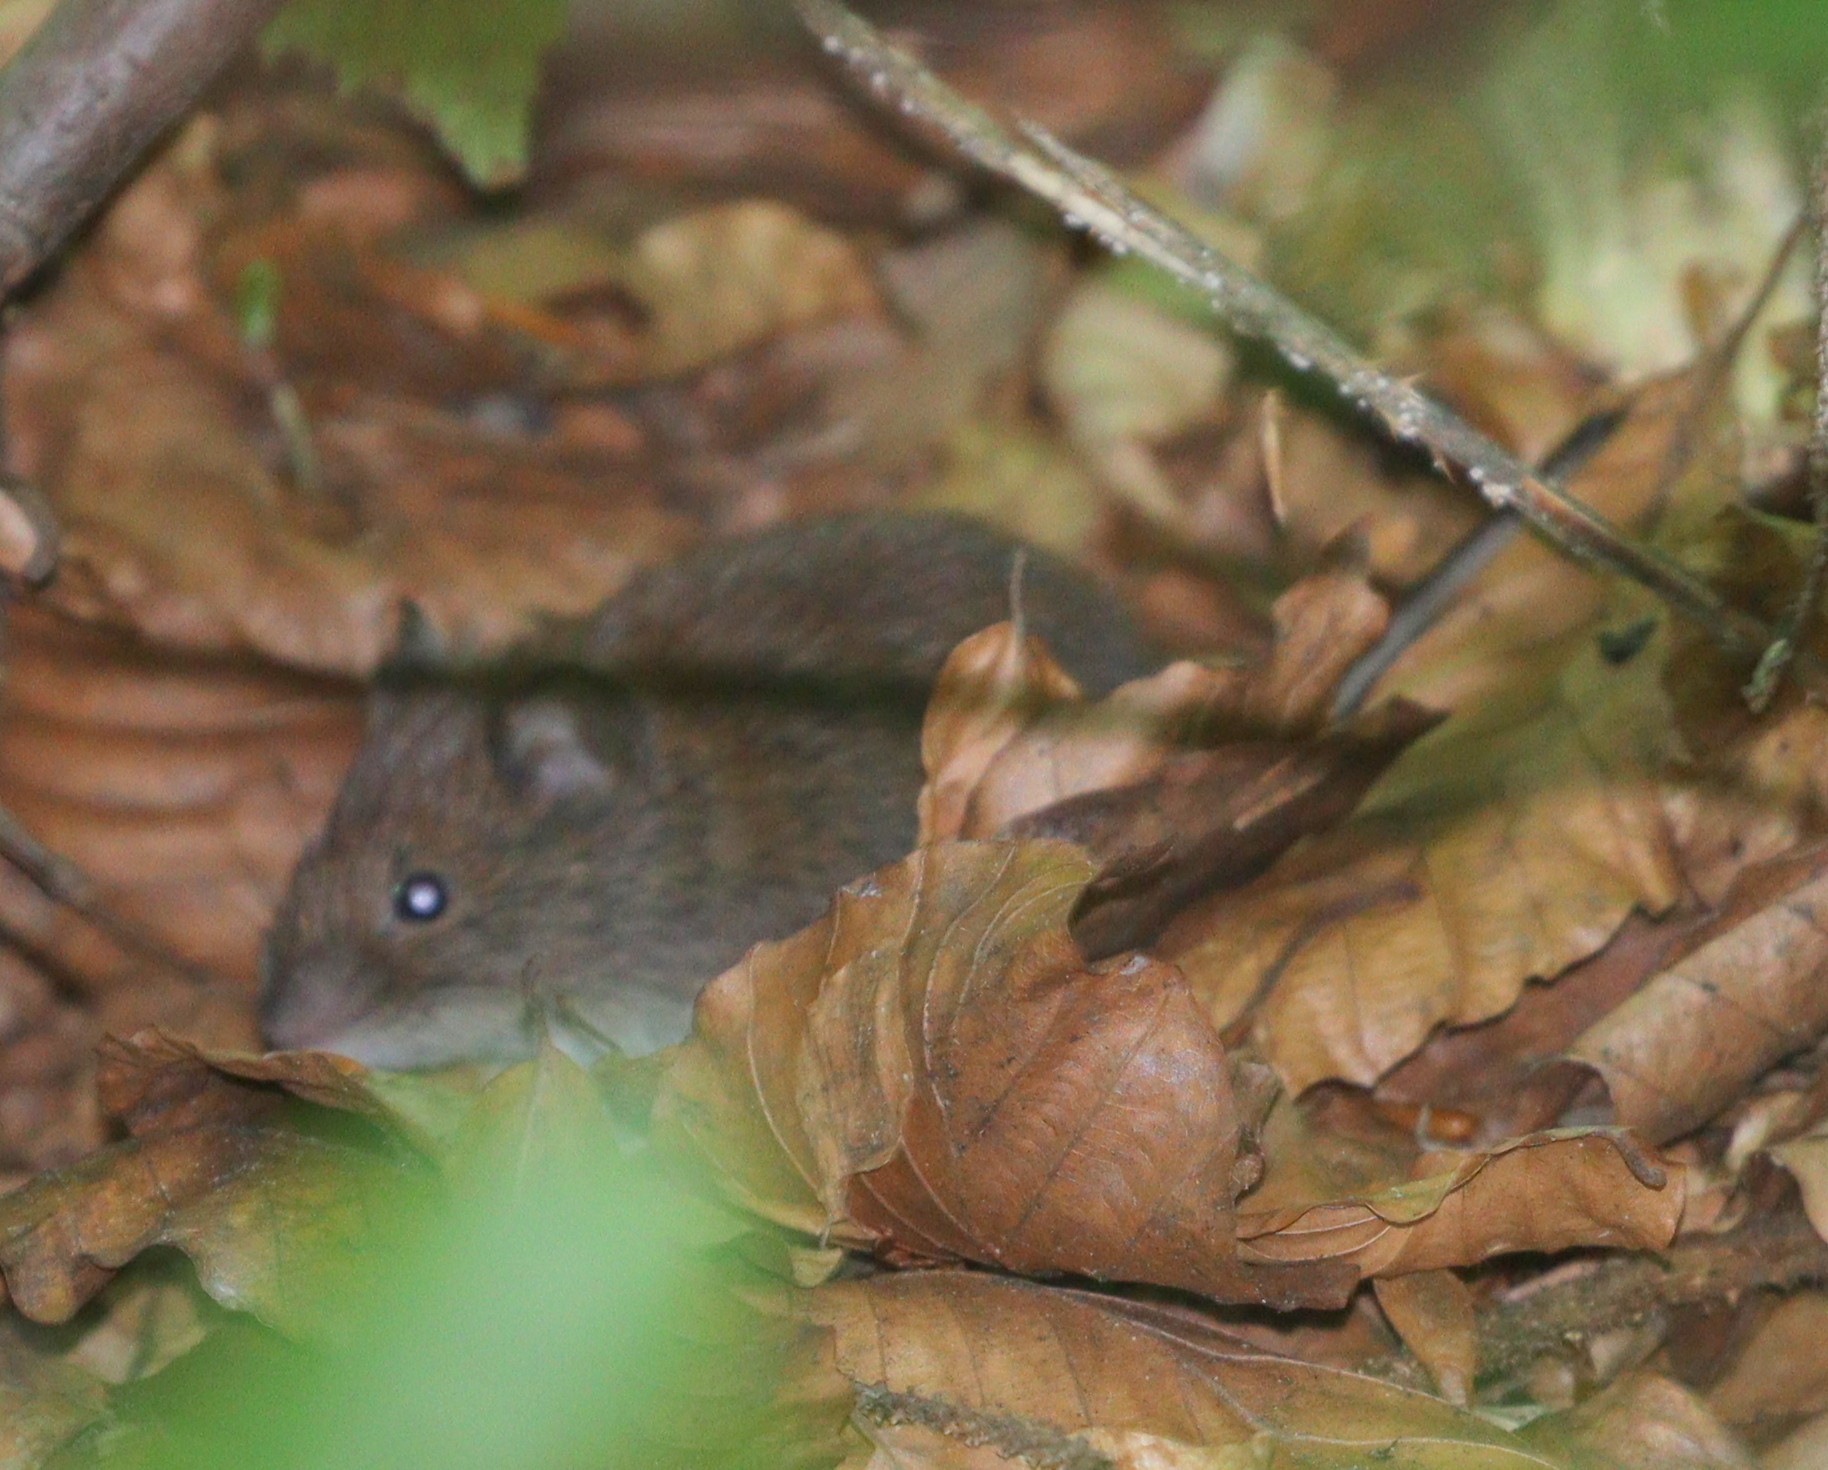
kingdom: Animalia
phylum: Chordata
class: Mammalia
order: Rodentia
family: Cricetidae
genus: Myodes
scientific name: Myodes glareolus
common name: Bank vole
